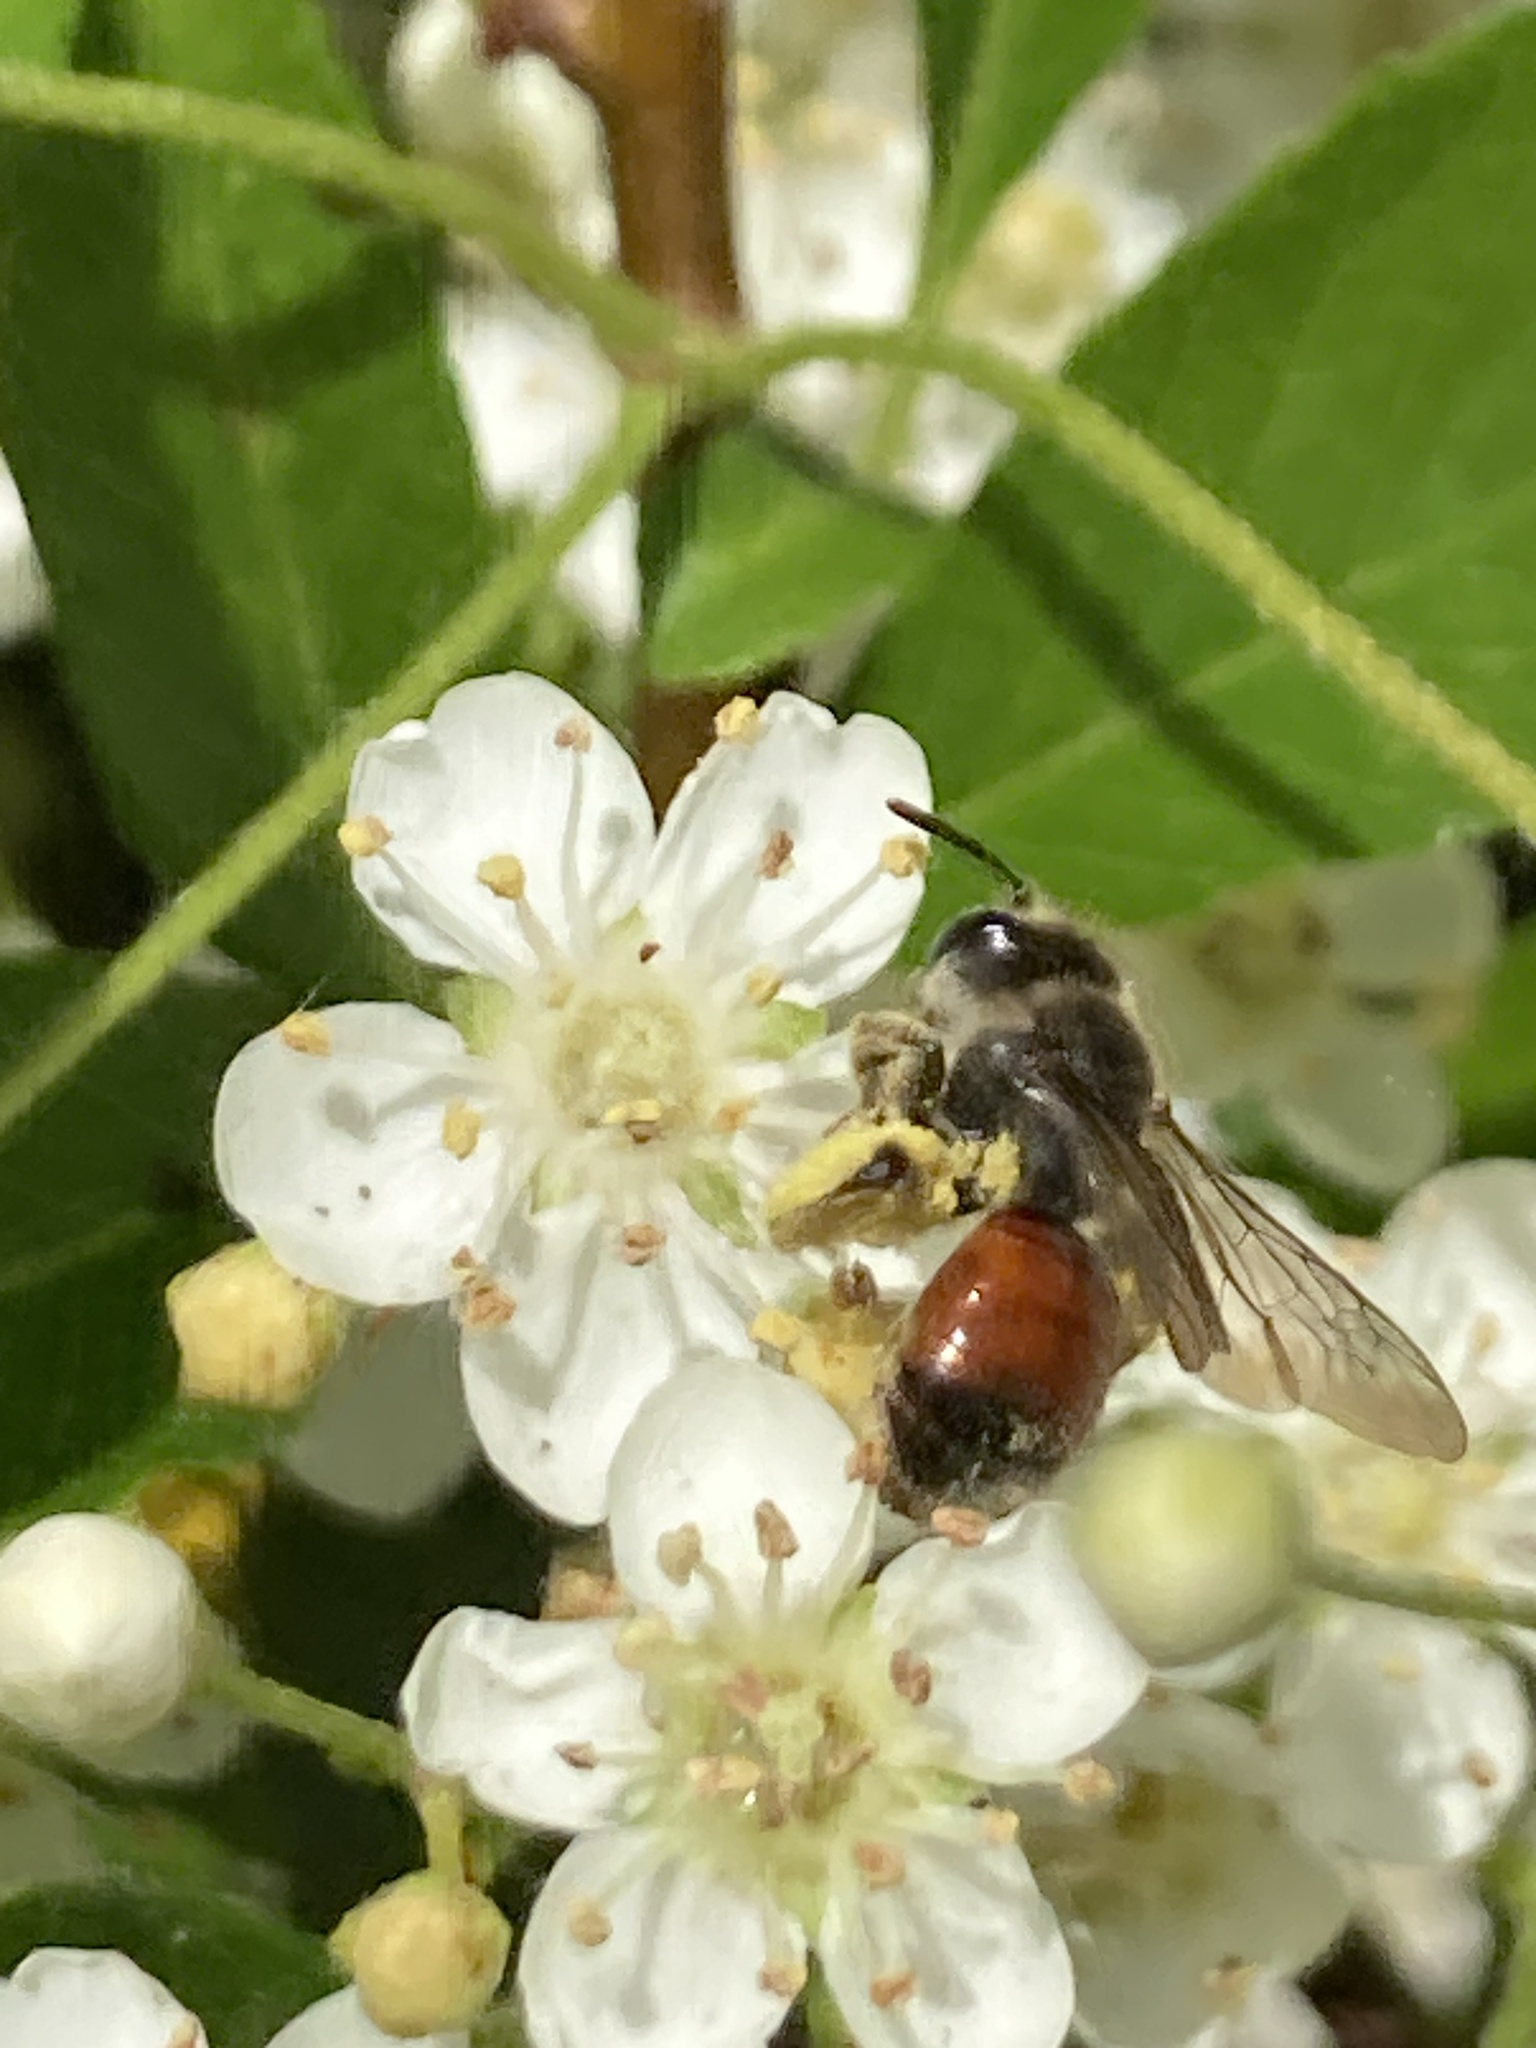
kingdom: Animalia
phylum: Arthropoda
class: Insecta
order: Hymenoptera
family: Andrenidae
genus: Andrena
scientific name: Andrena labiata
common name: Red-girdled mining bee
